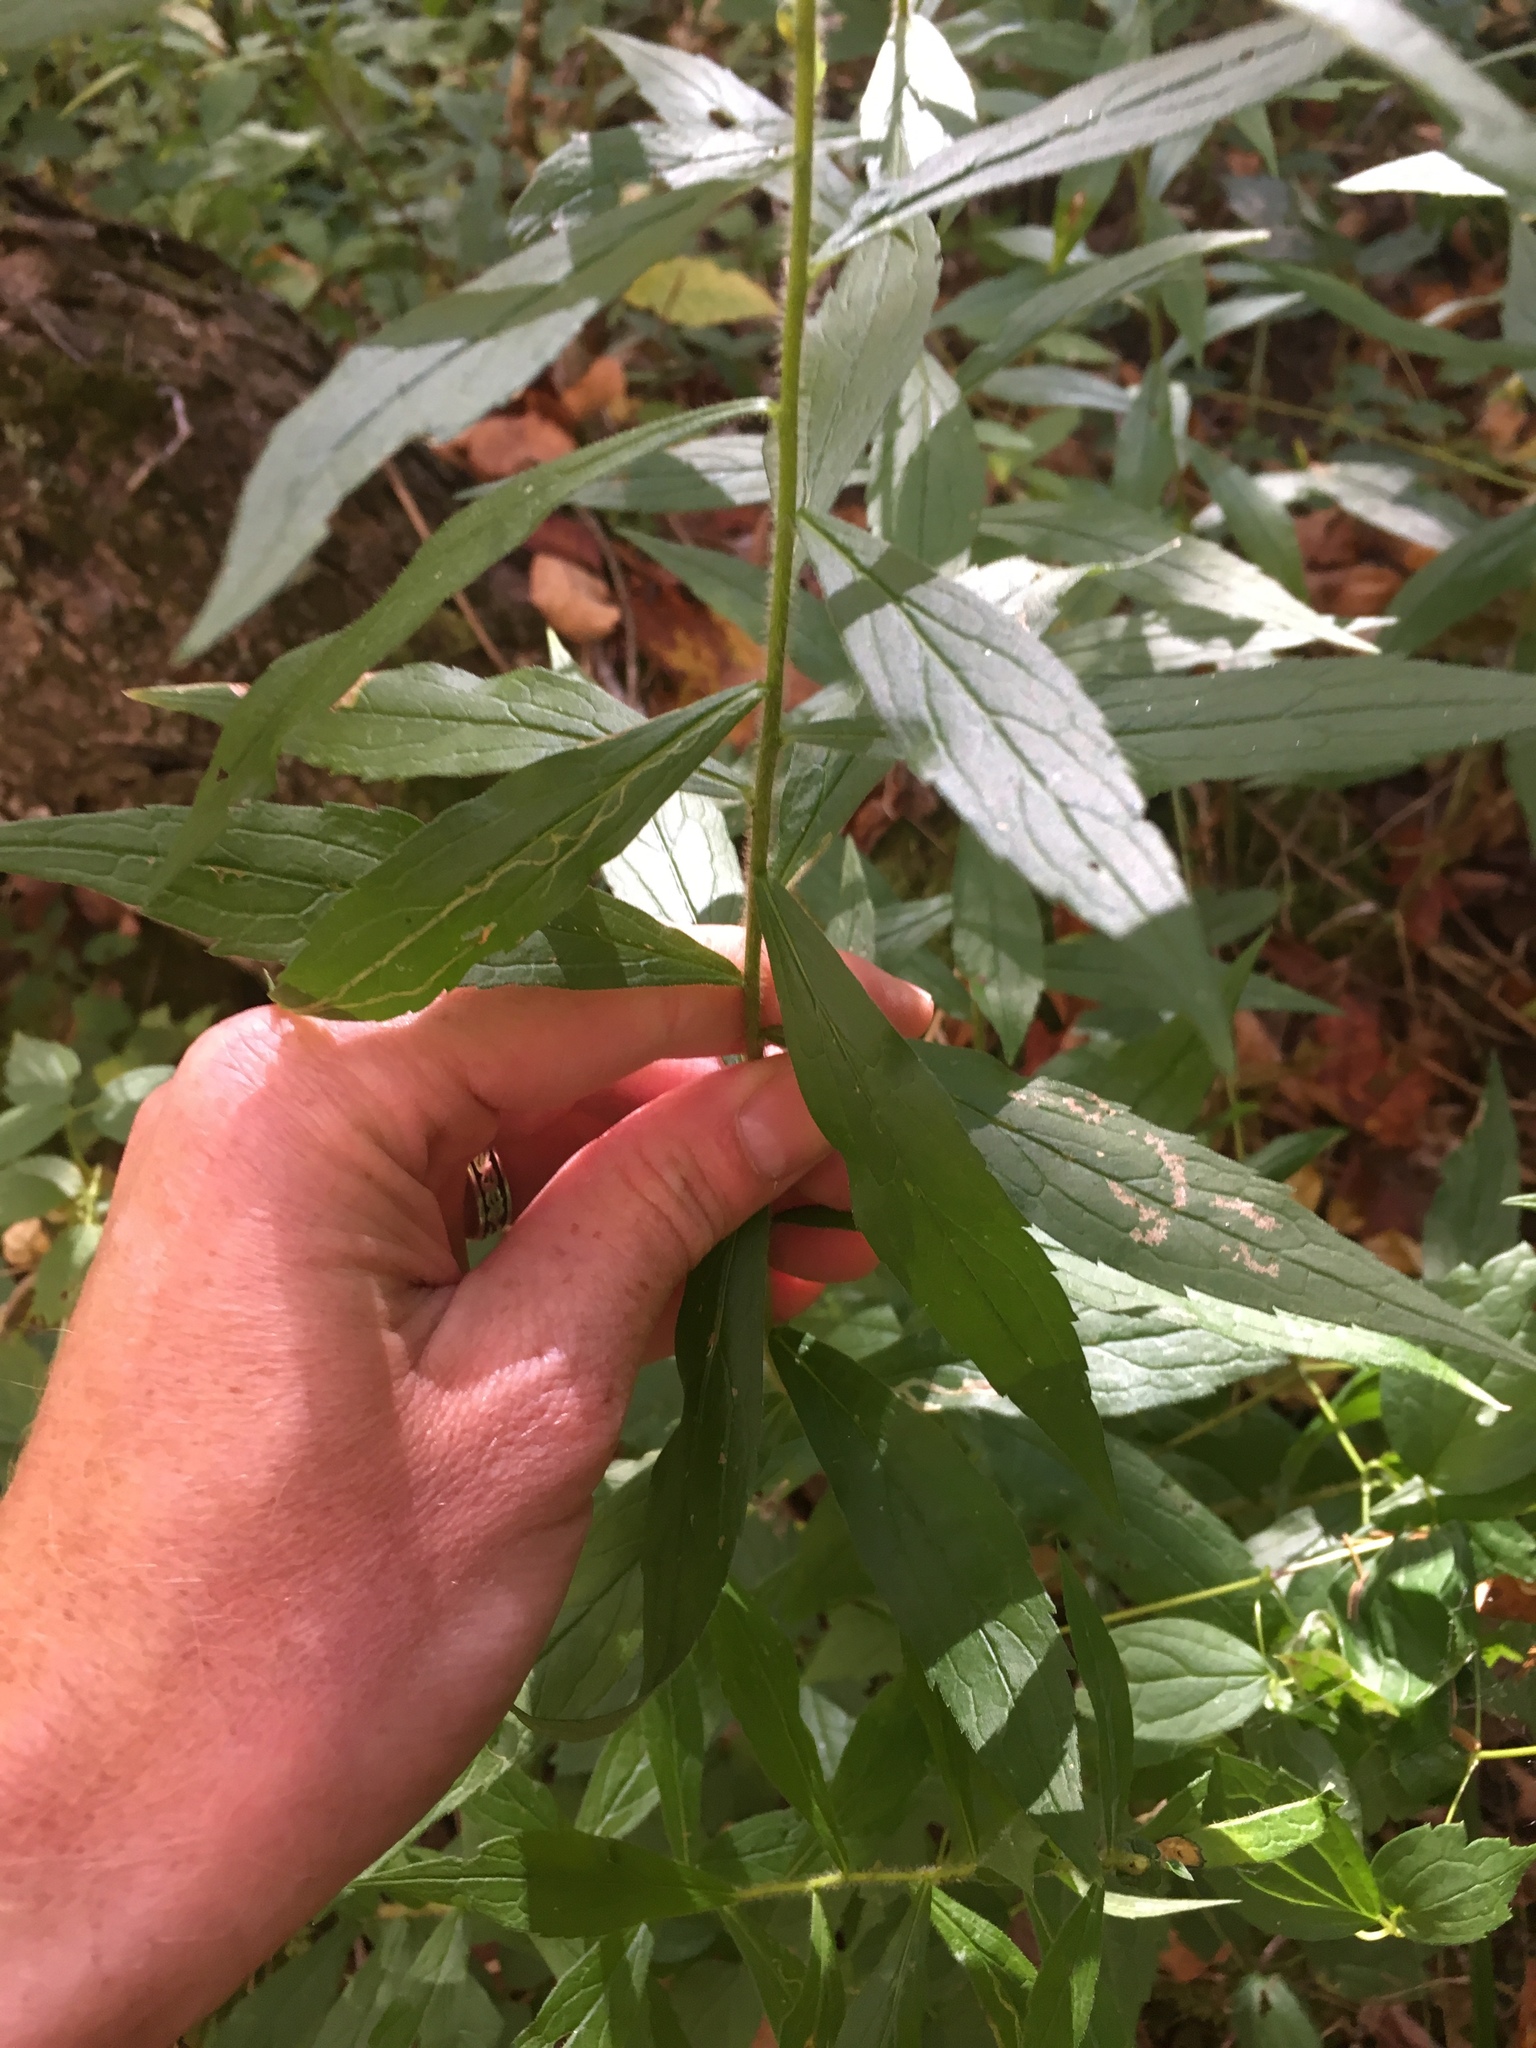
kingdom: Plantae
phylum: Tracheophyta
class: Magnoliopsida
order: Asterales
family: Asteraceae
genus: Solidago
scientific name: Solidago rugosa
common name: Rough-stemmed goldenrod
